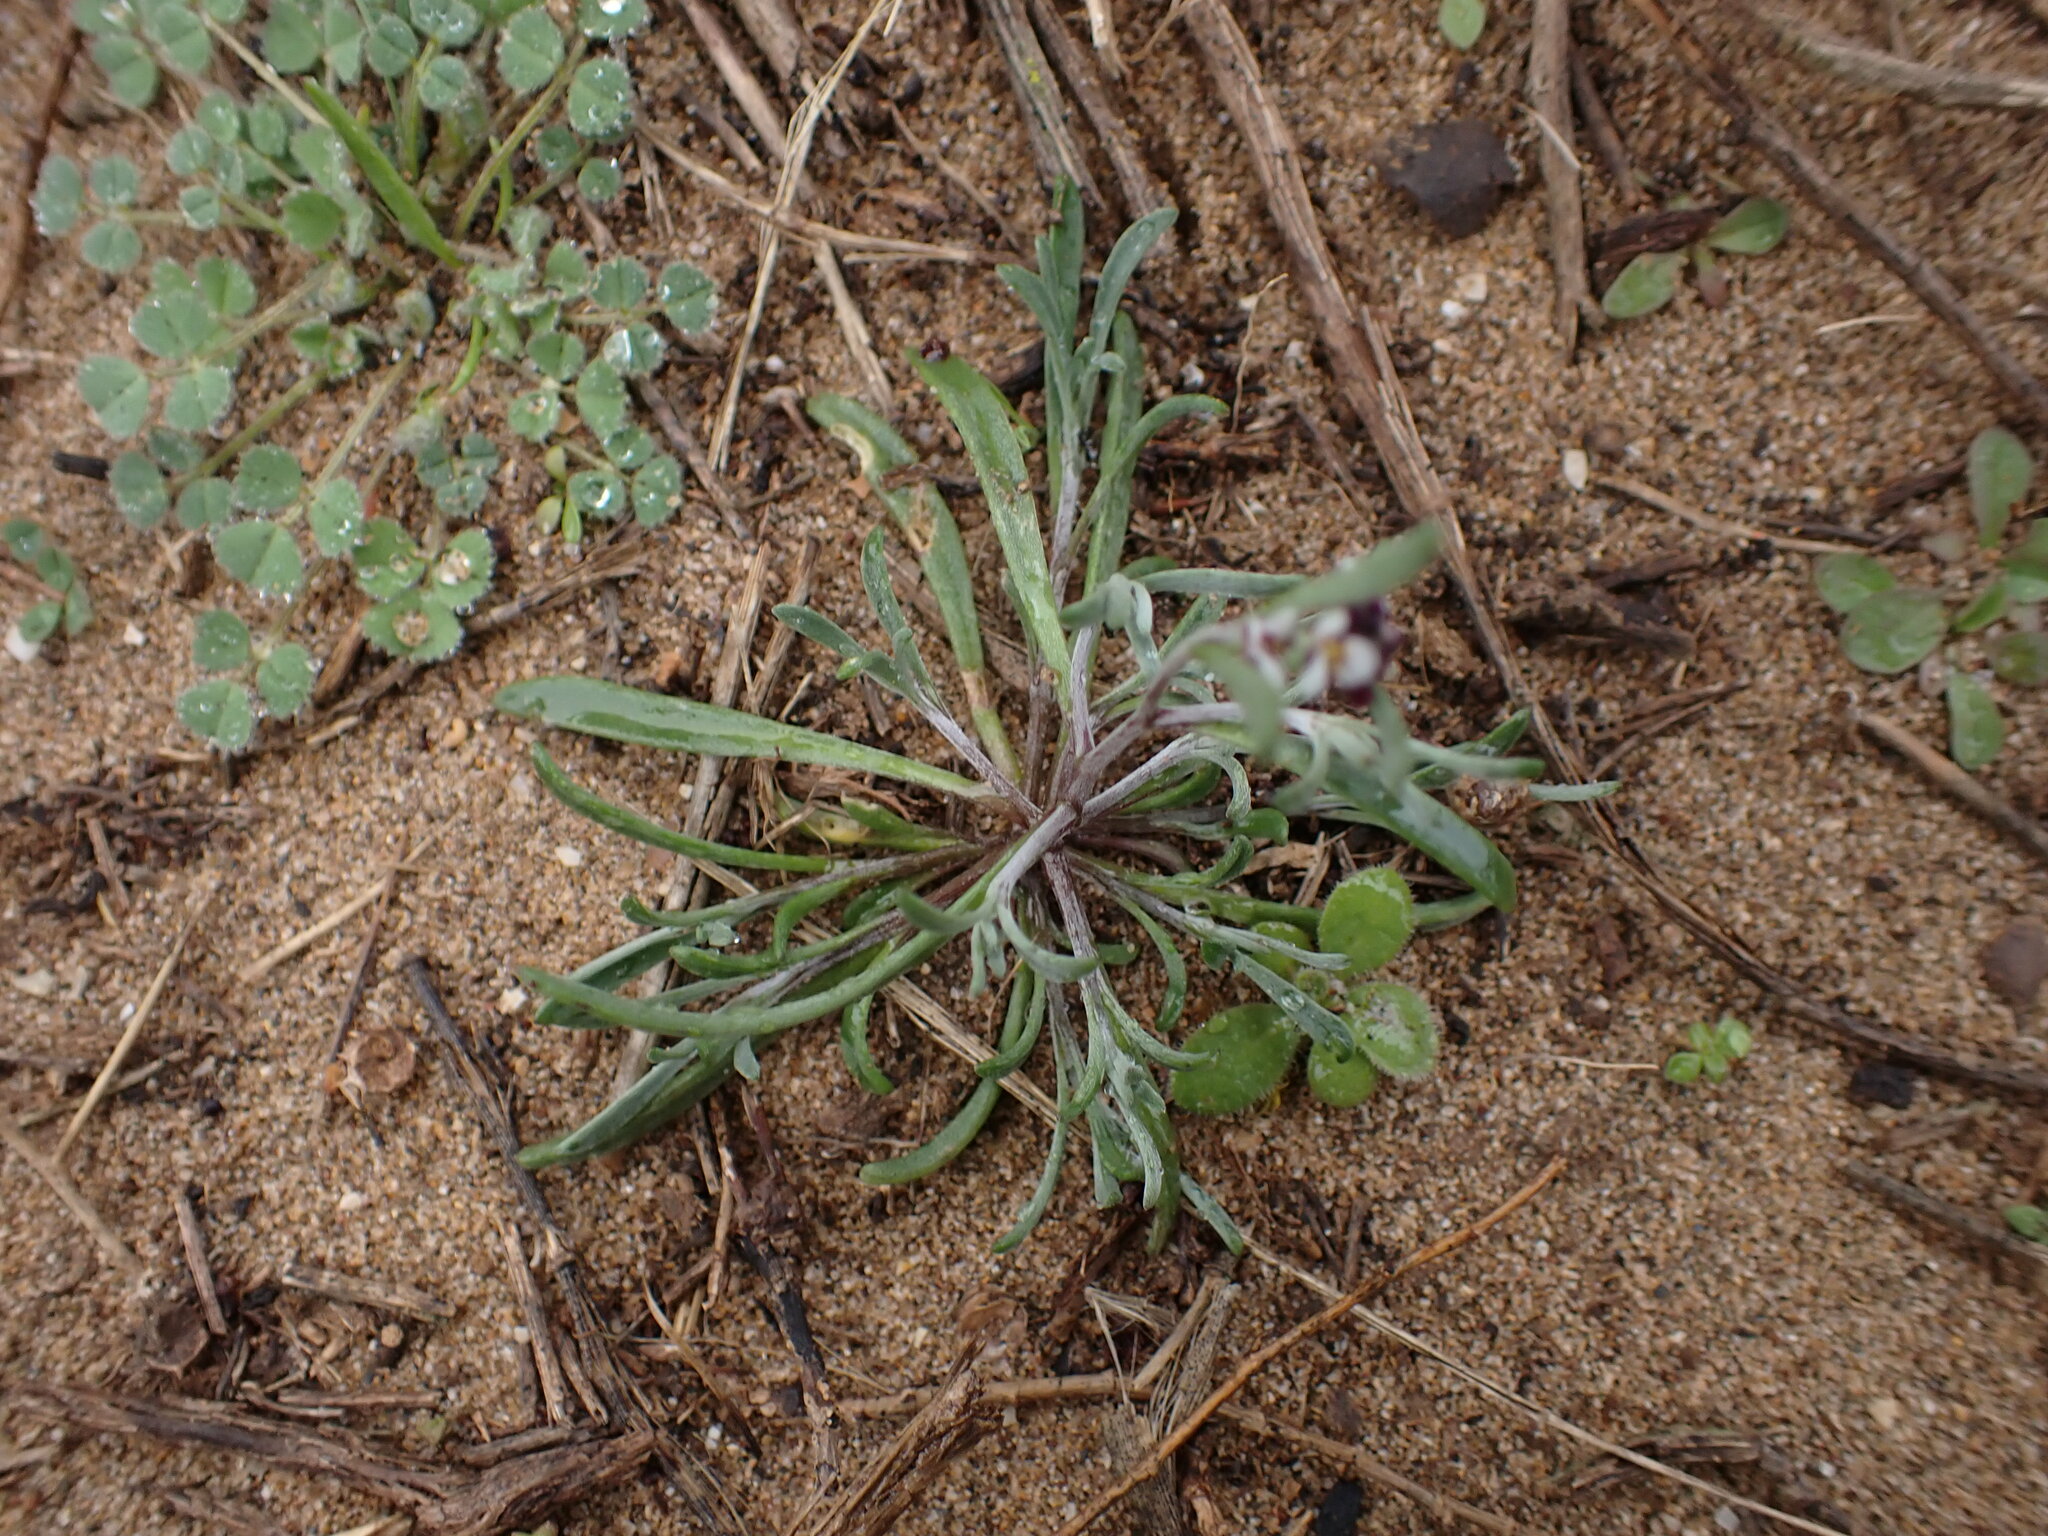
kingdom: Plantae
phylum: Tracheophyta
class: Magnoliopsida
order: Brassicales
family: Brassicaceae
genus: Lobularia
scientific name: Lobularia maritima
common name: Sweet alison
